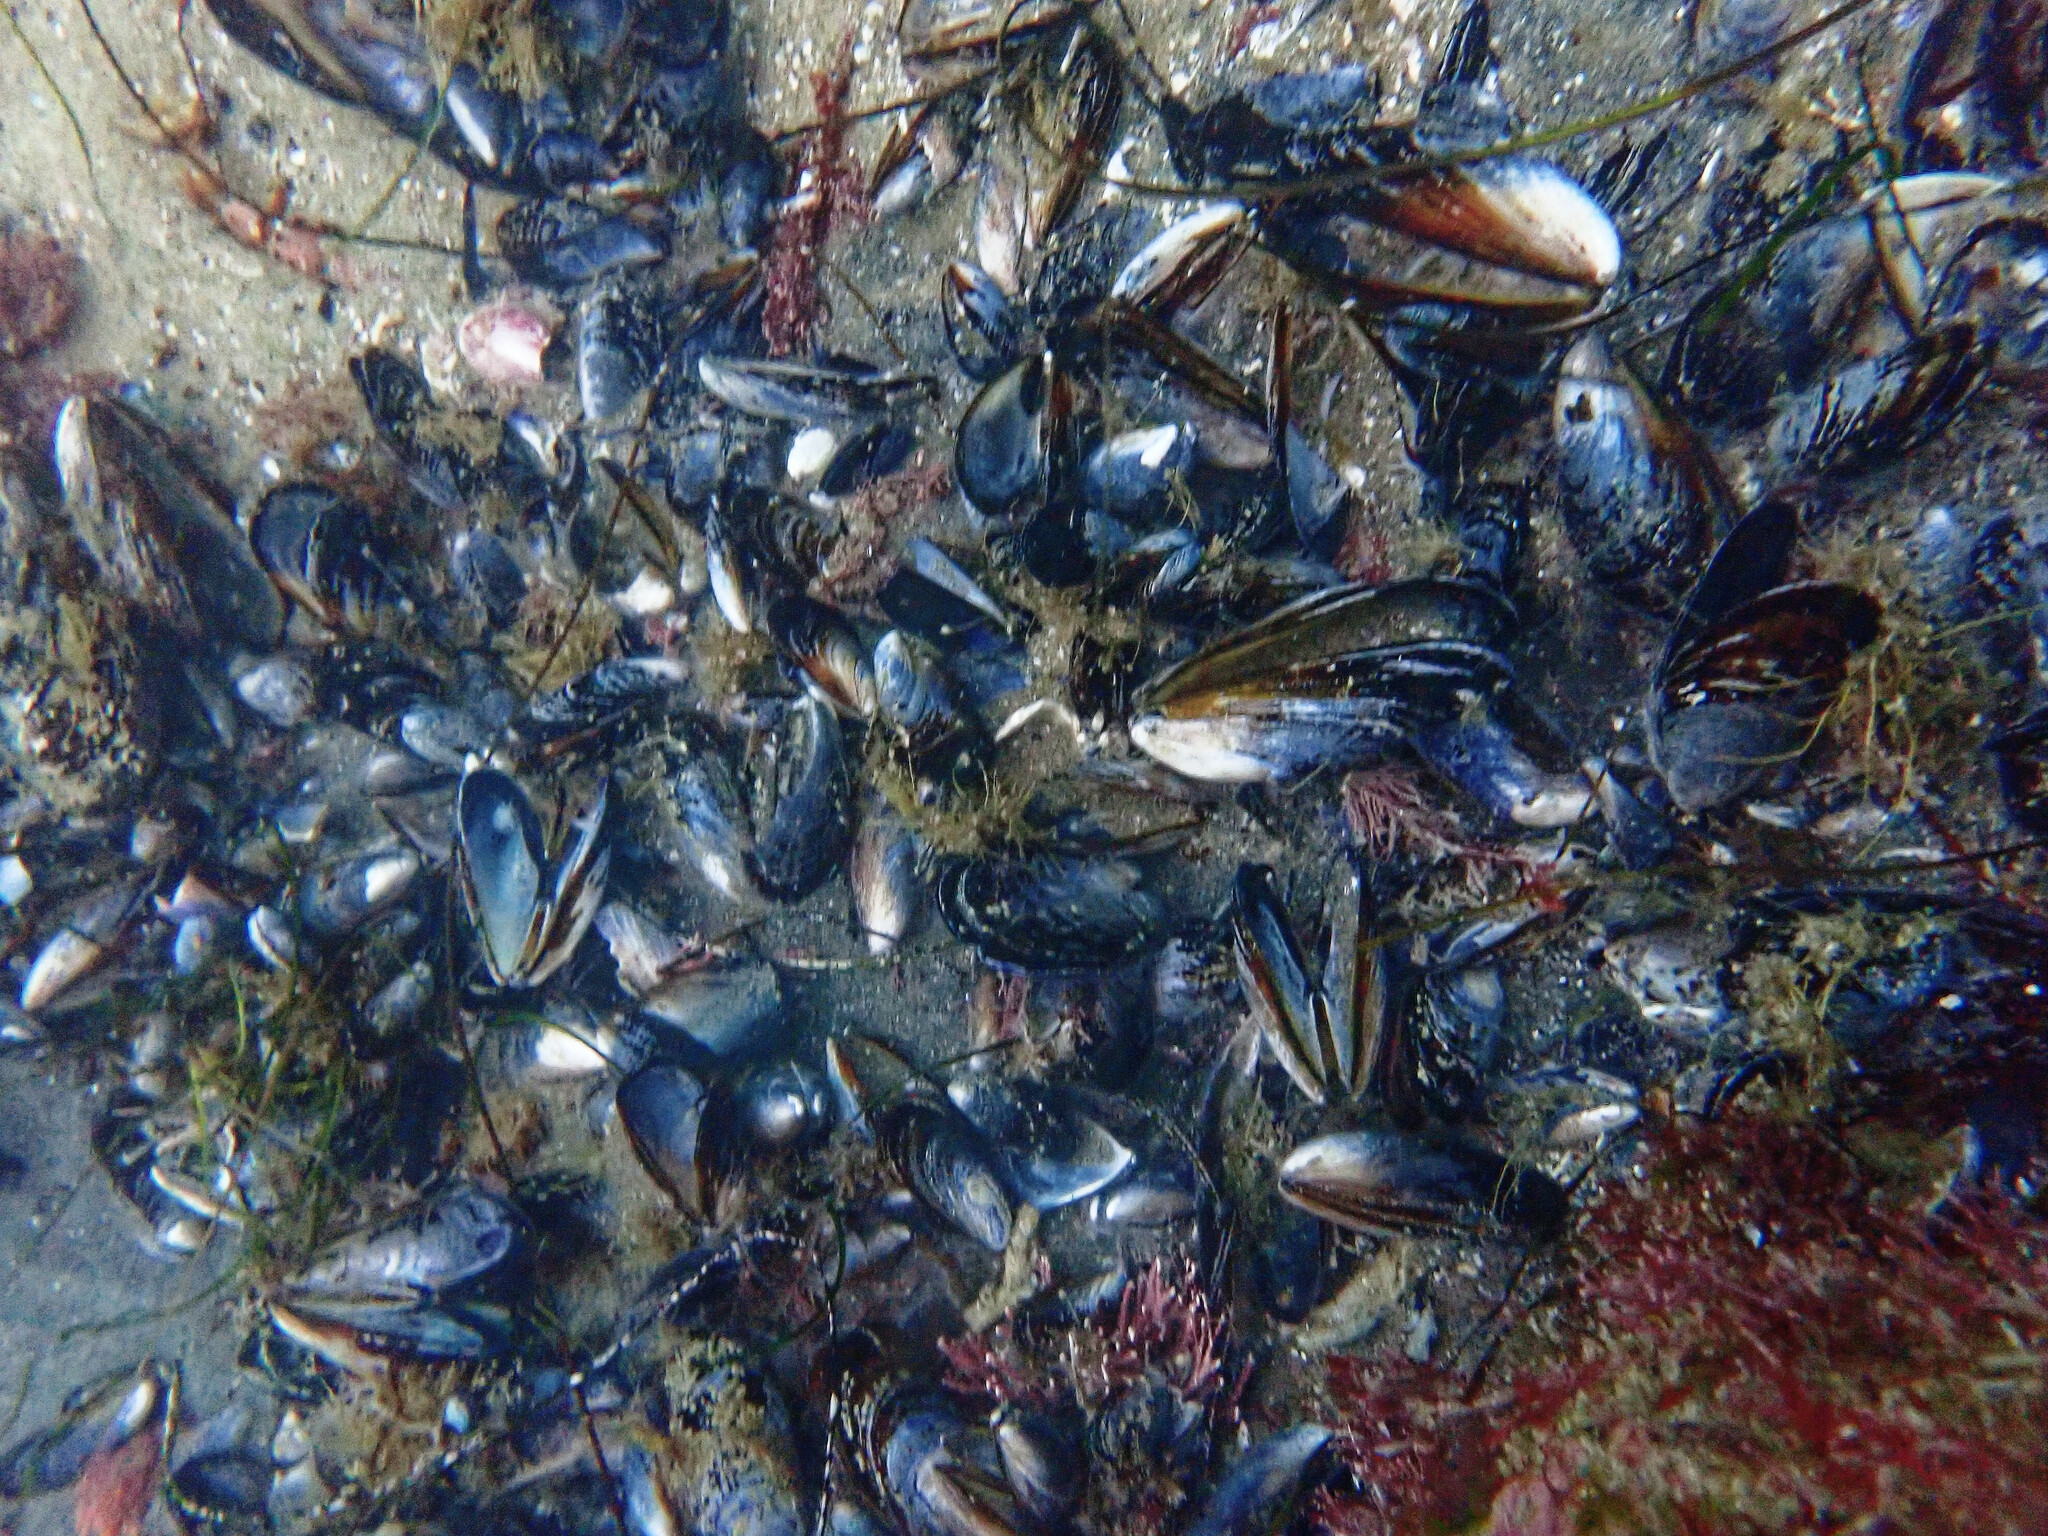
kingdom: Animalia
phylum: Mollusca
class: Bivalvia
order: Mytilida
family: Mytilidae
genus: Mytilus
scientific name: Mytilus californianus
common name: California mussel
